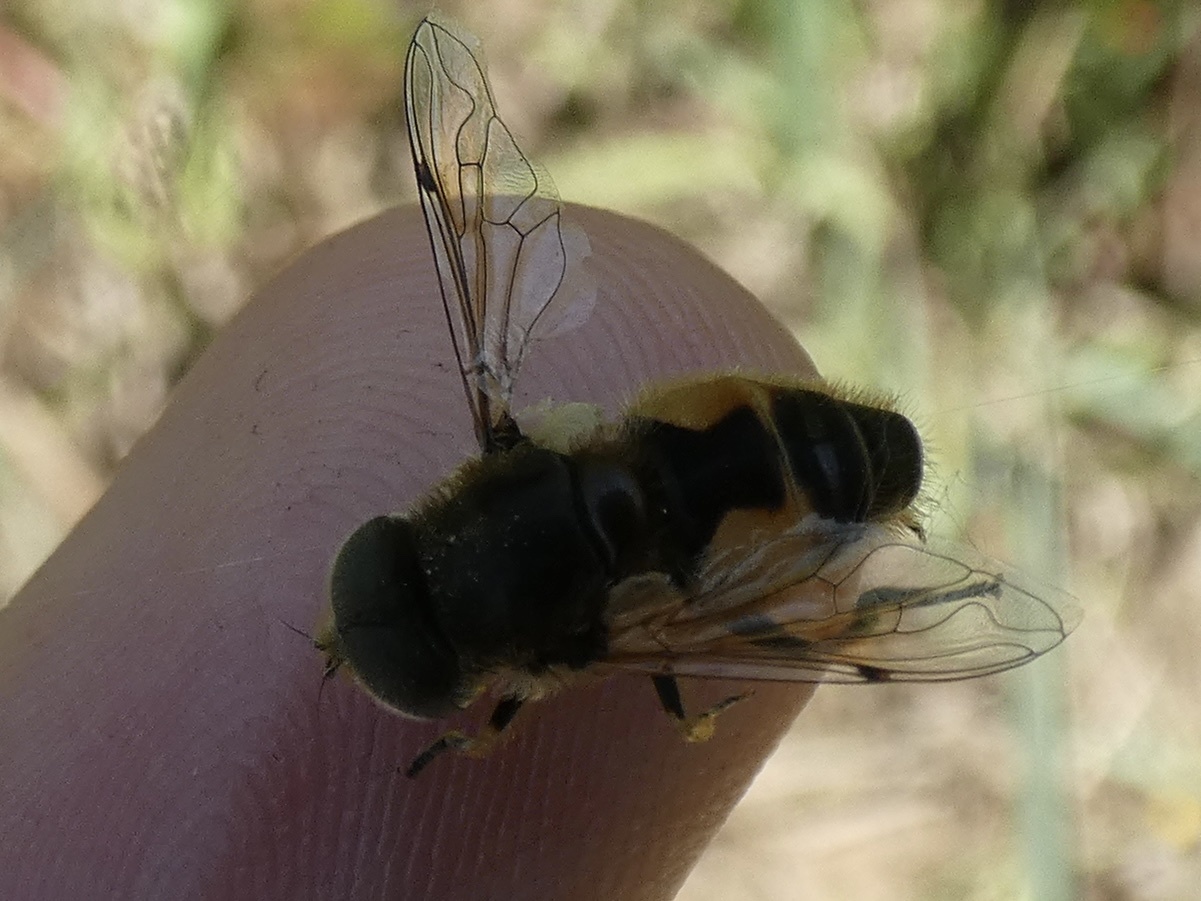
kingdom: Animalia
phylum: Arthropoda
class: Insecta
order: Diptera
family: Syrphidae
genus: Eoseristalis
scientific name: Eoseristalis
